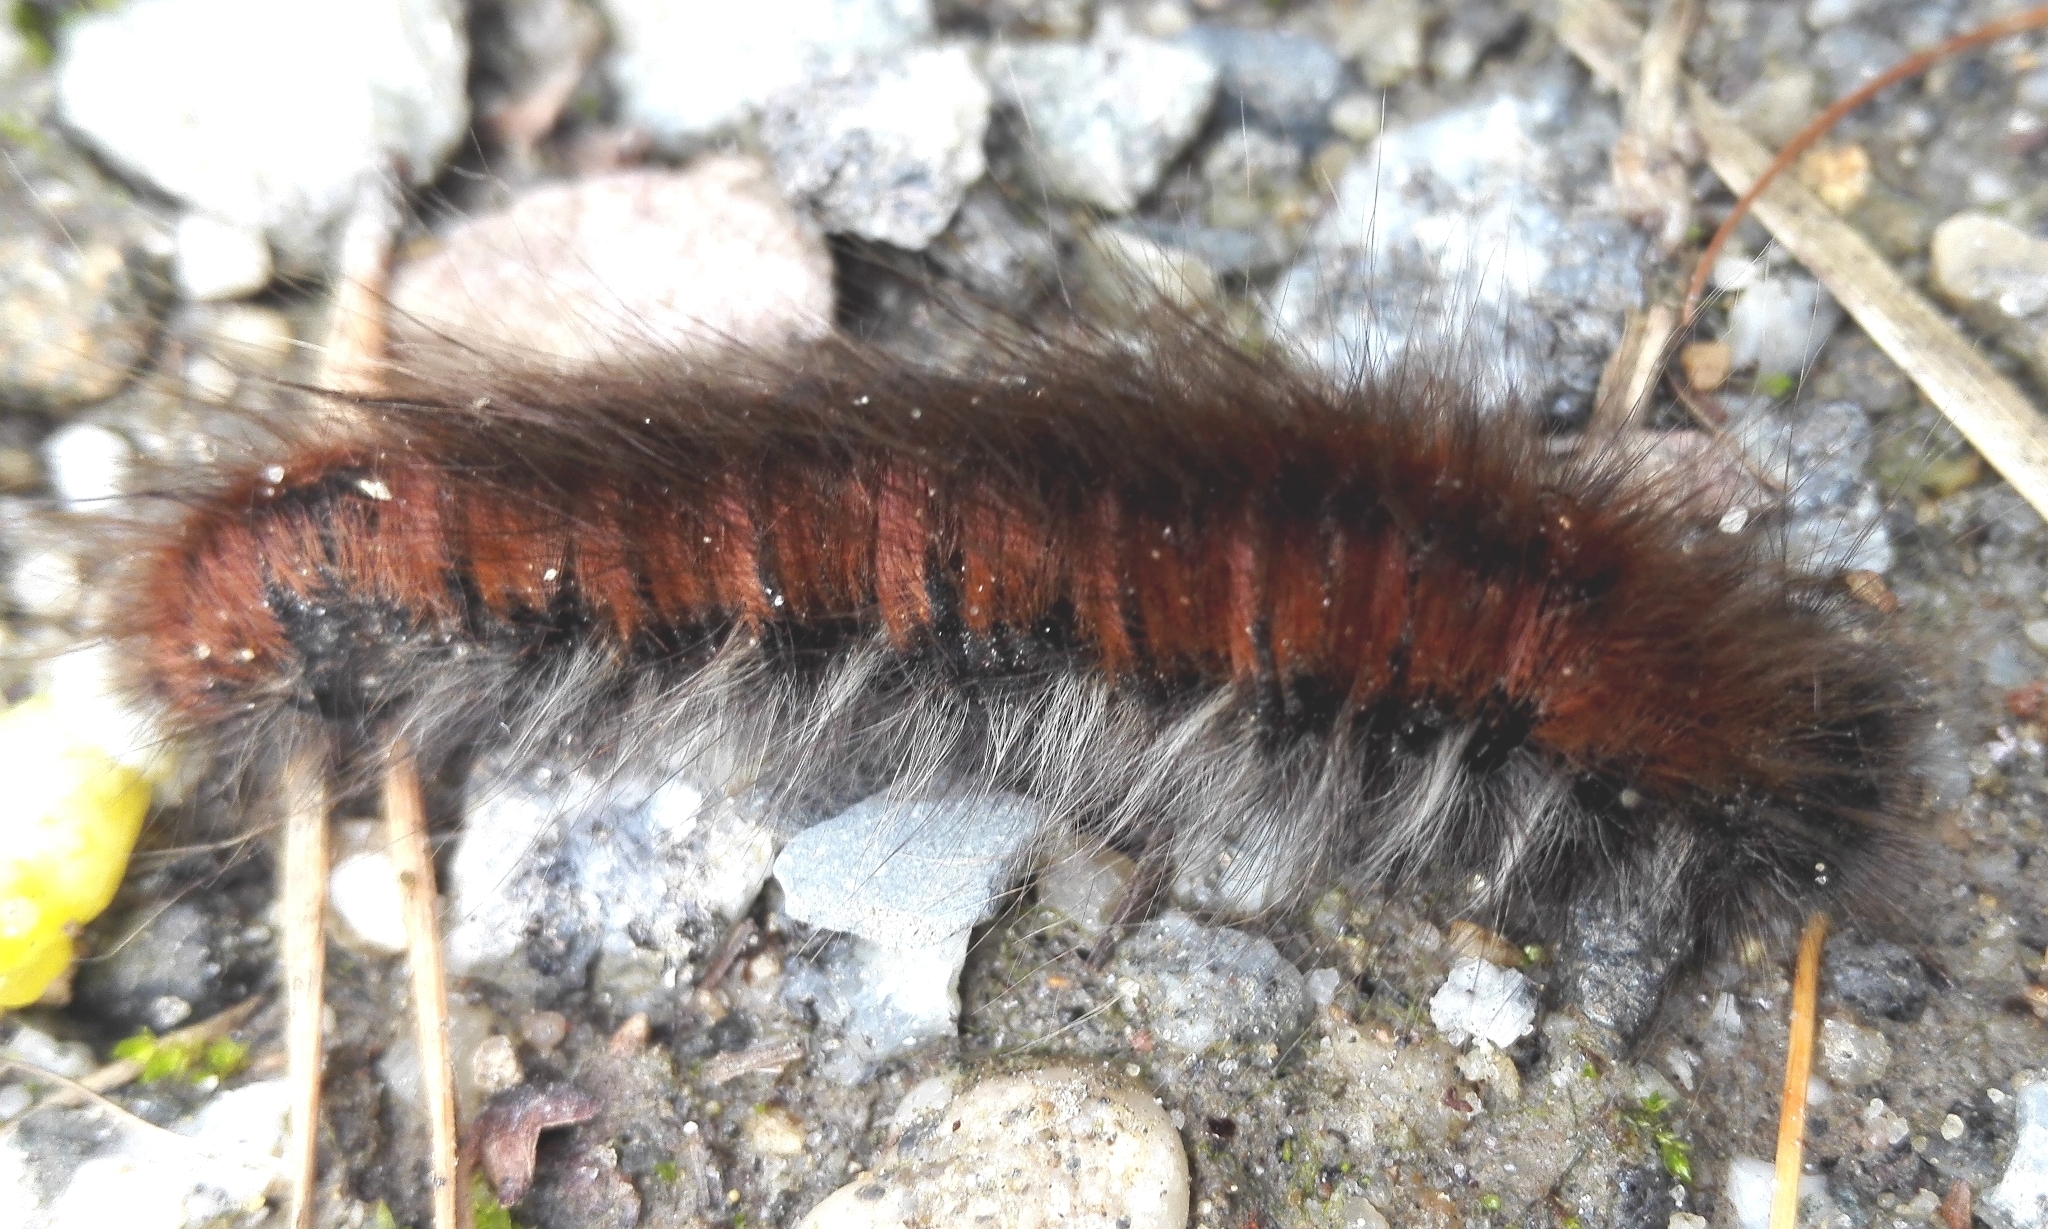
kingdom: Animalia
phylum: Arthropoda
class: Insecta
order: Lepidoptera
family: Lasiocampidae
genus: Macrothylacia
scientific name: Macrothylacia rubi
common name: Fox moth
